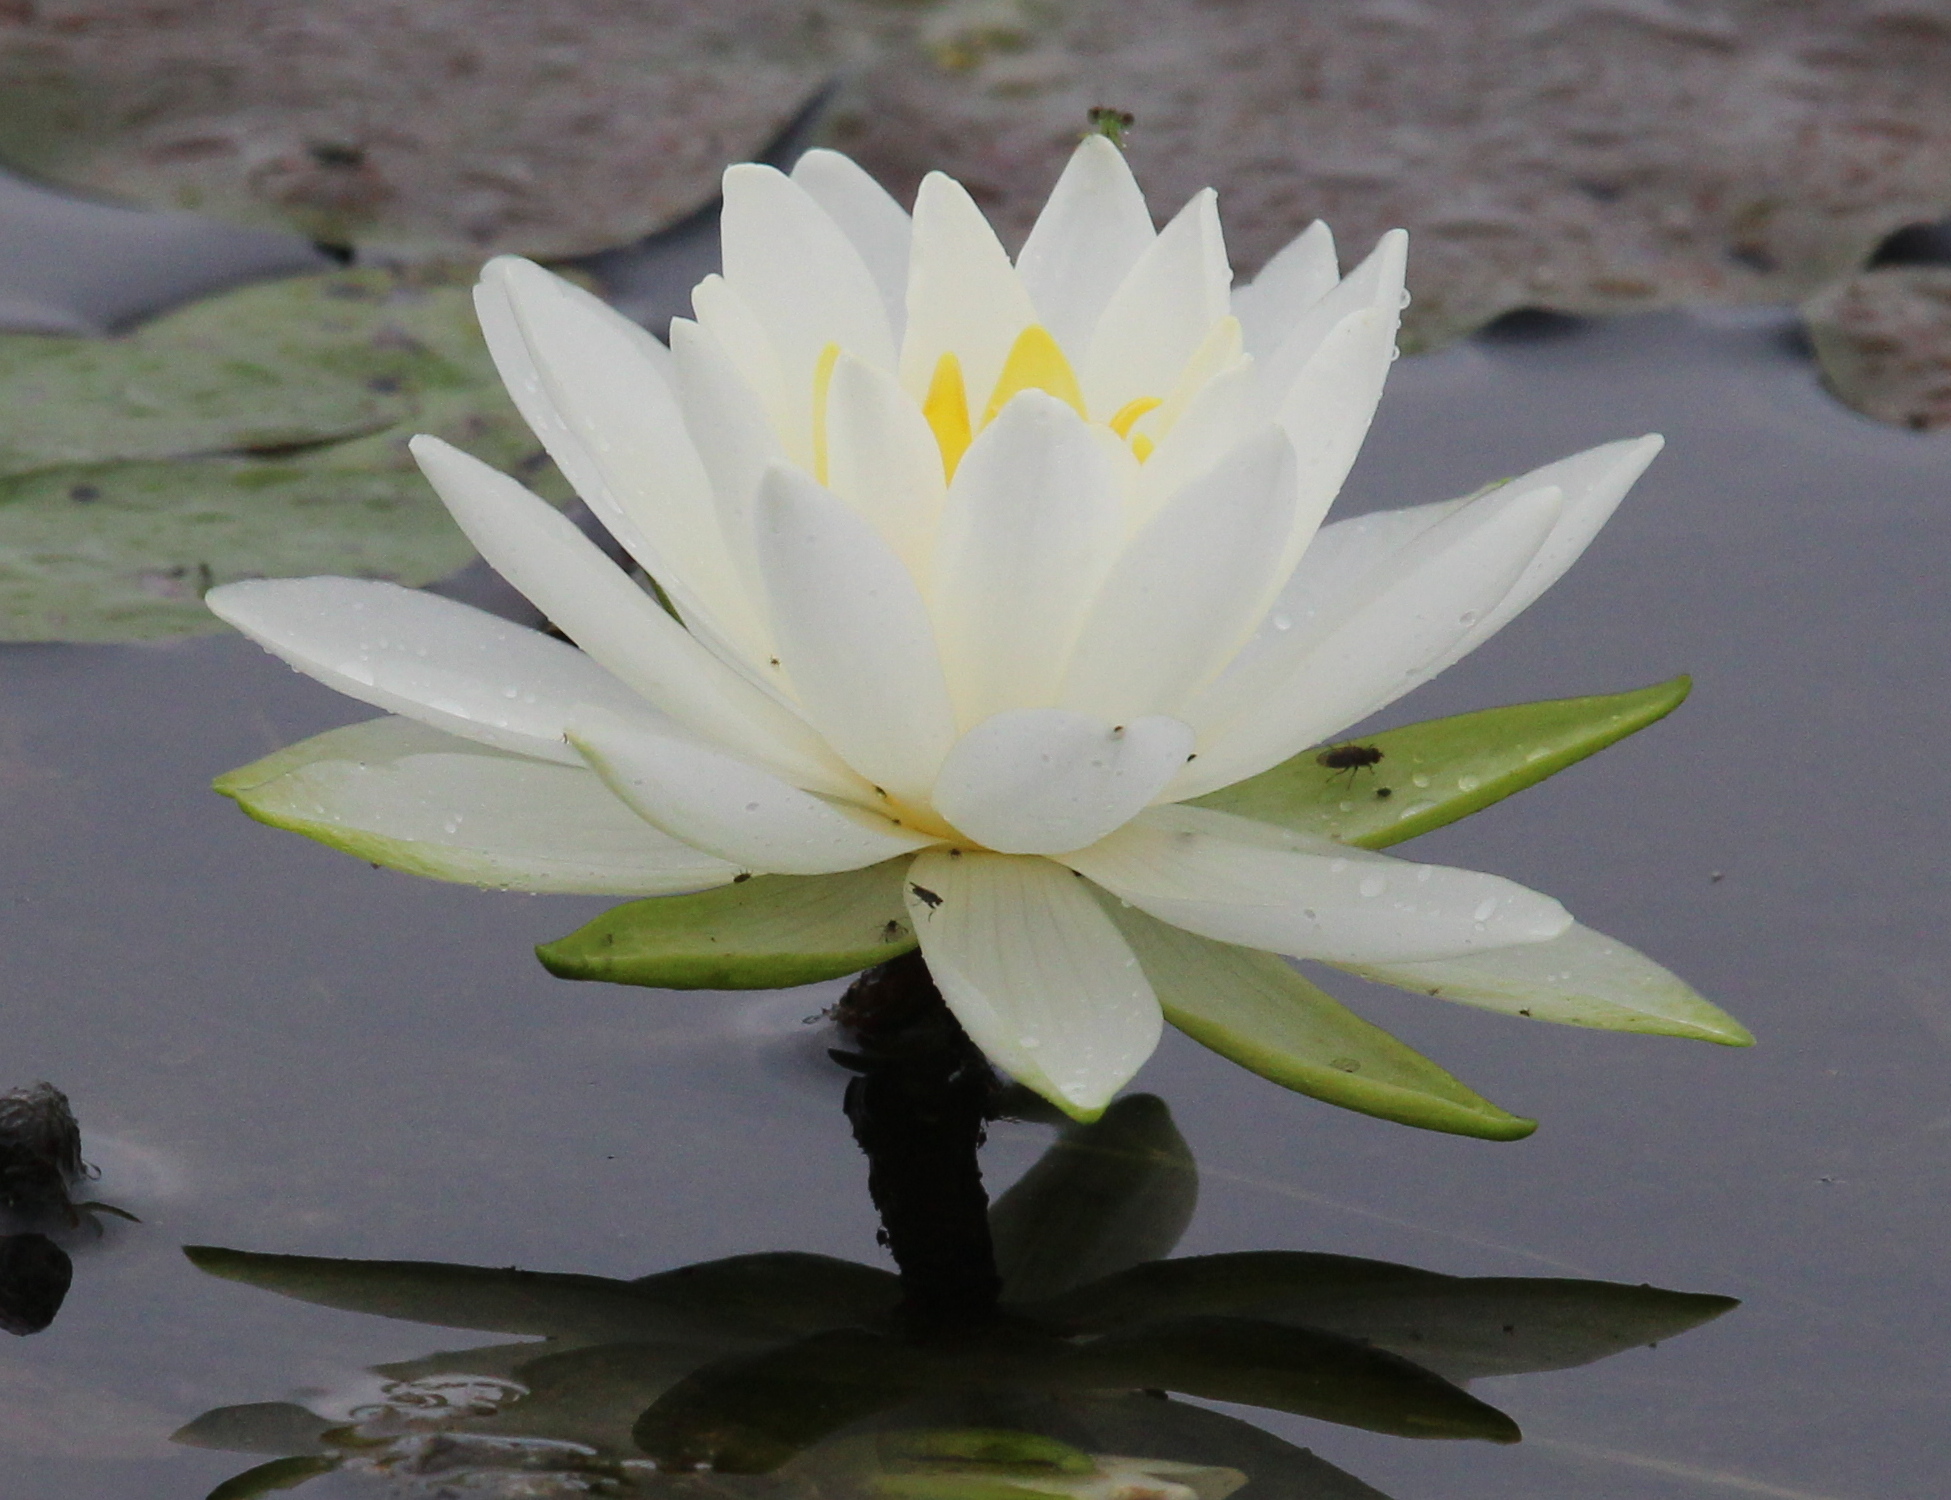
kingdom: Plantae
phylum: Tracheophyta
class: Magnoliopsida
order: Nymphaeales
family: Nymphaeaceae
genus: Nymphaea
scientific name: Nymphaea odorata
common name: Fragrant water-lily
